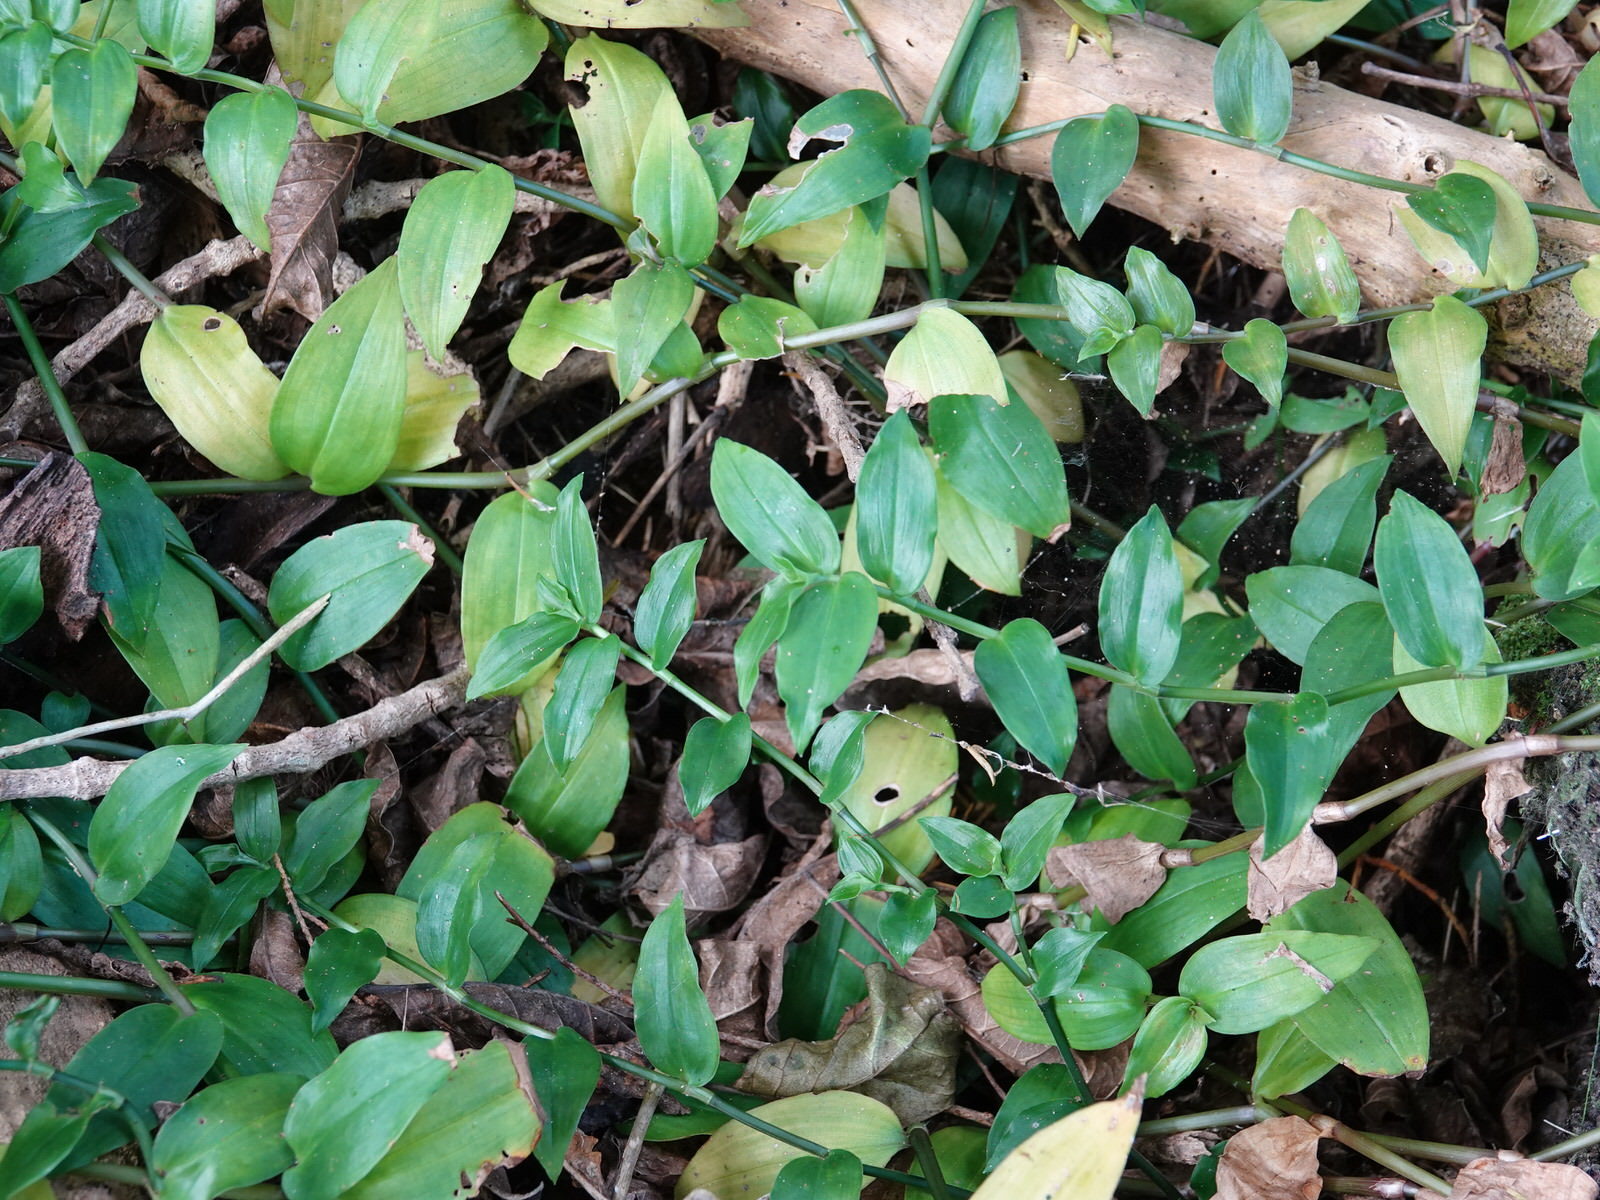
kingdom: Plantae
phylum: Tracheophyta
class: Liliopsida
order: Commelinales
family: Commelinaceae
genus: Tradescantia
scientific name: Tradescantia fluminensis
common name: Wandering-jew
